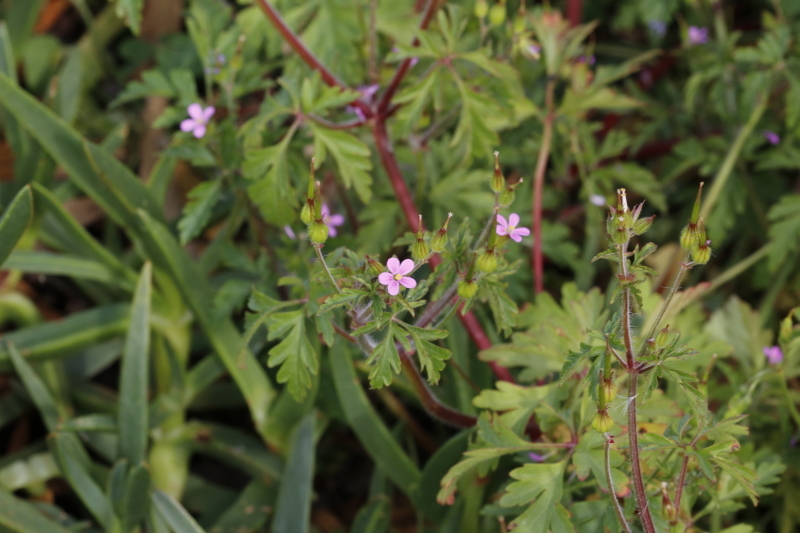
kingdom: Plantae
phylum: Tracheophyta
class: Magnoliopsida
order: Geraniales
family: Geraniaceae
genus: Geranium
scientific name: Geranium purpureum
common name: Little-robin
